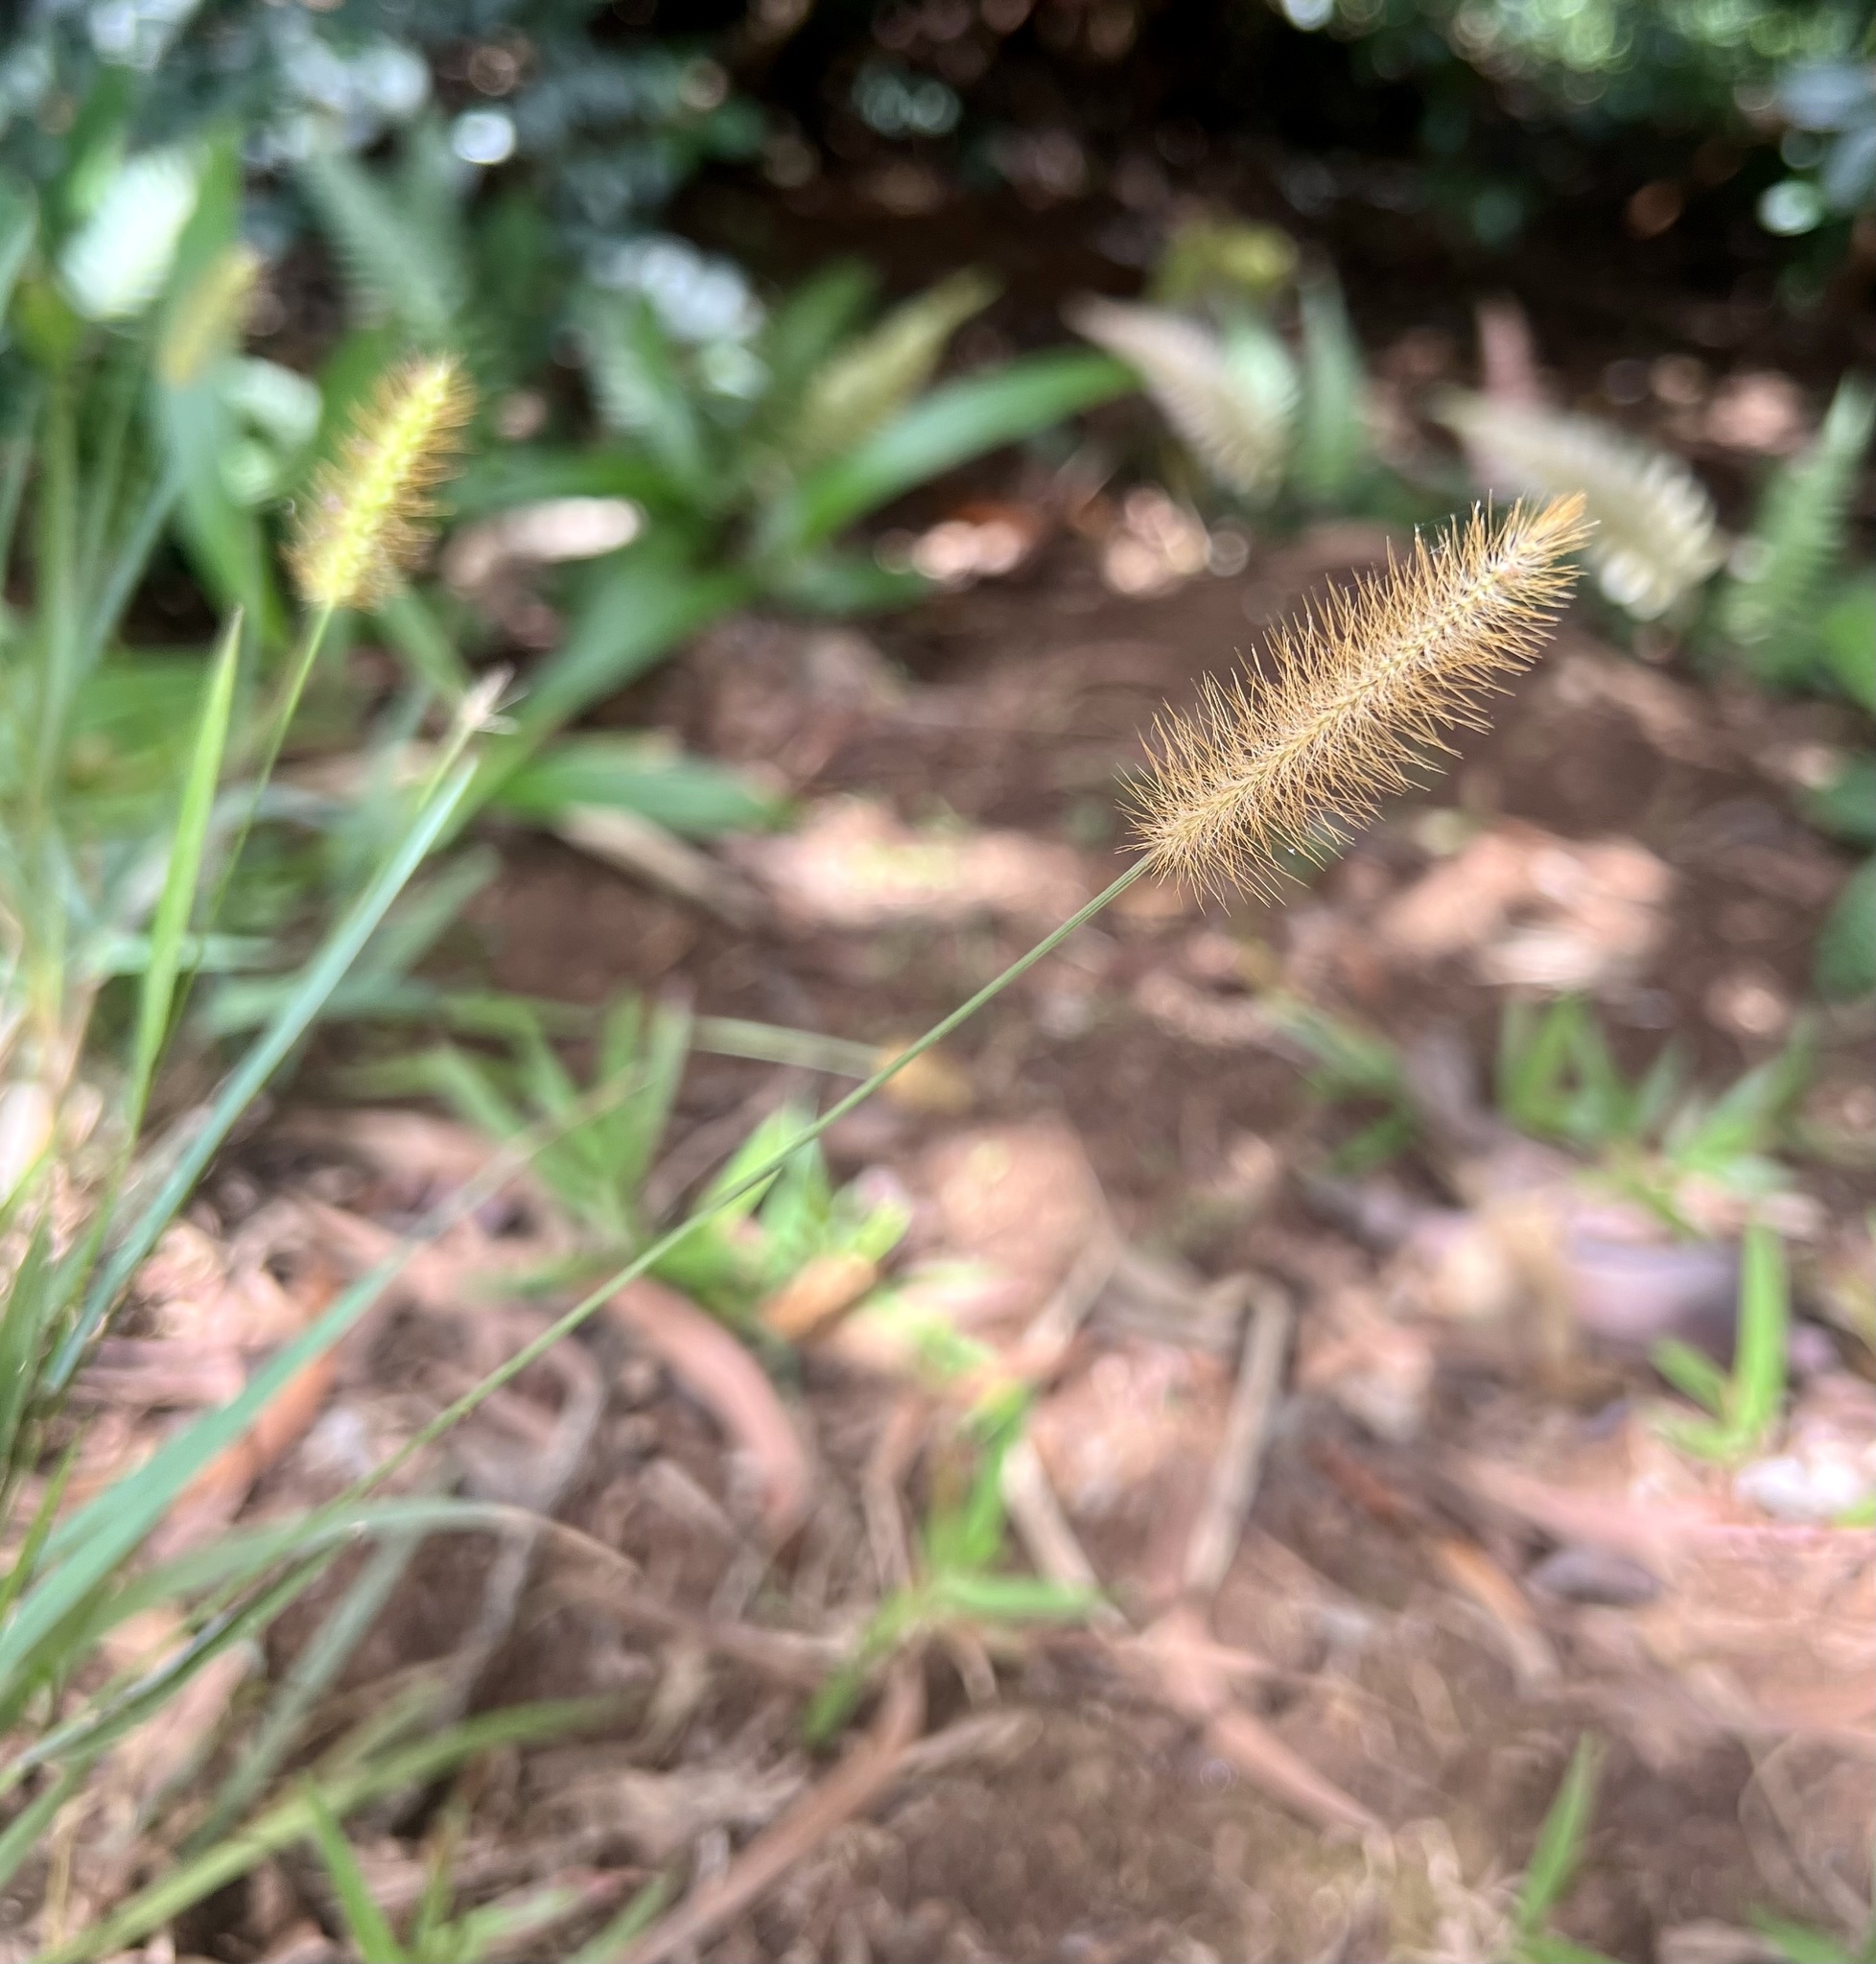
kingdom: Plantae
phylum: Tracheophyta
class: Liliopsida
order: Poales
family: Poaceae
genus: Setaria
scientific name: Setaria parviflora
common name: Knotroot bristle-grass
